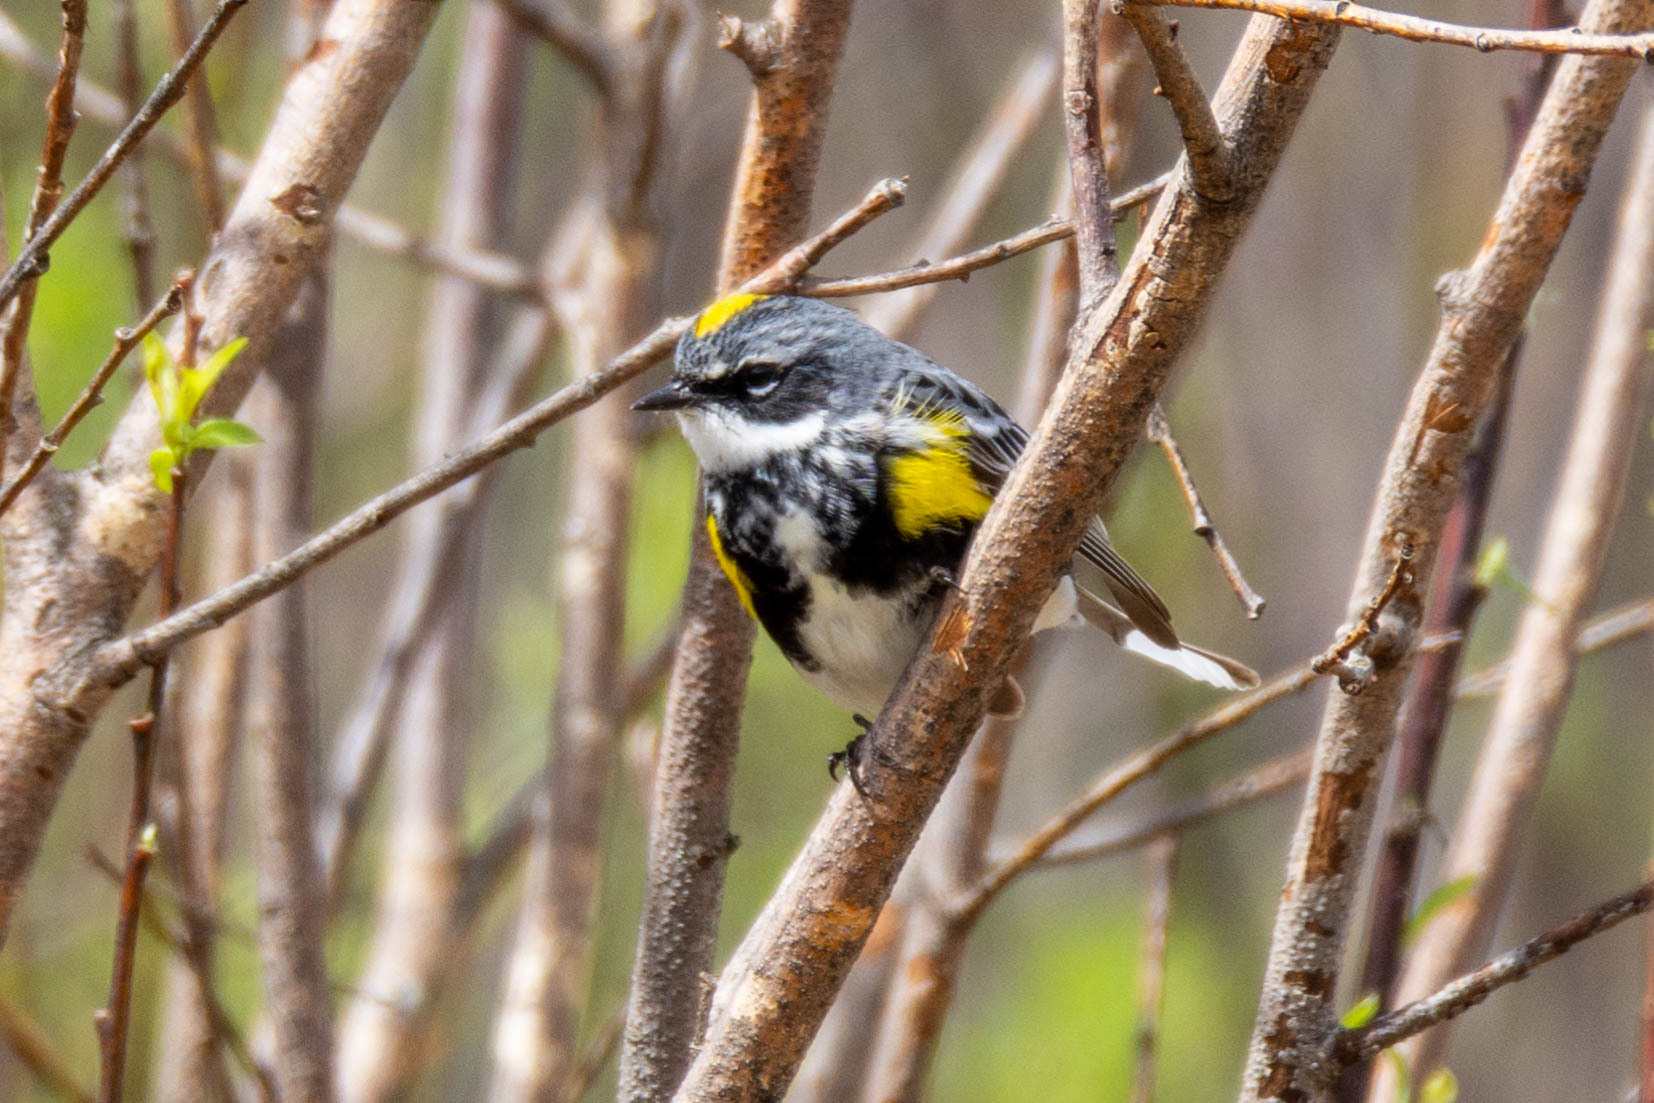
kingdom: Animalia
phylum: Chordata
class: Aves
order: Passeriformes
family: Parulidae
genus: Setophaga
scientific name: Setophaga coronata
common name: Myrtle warbler
